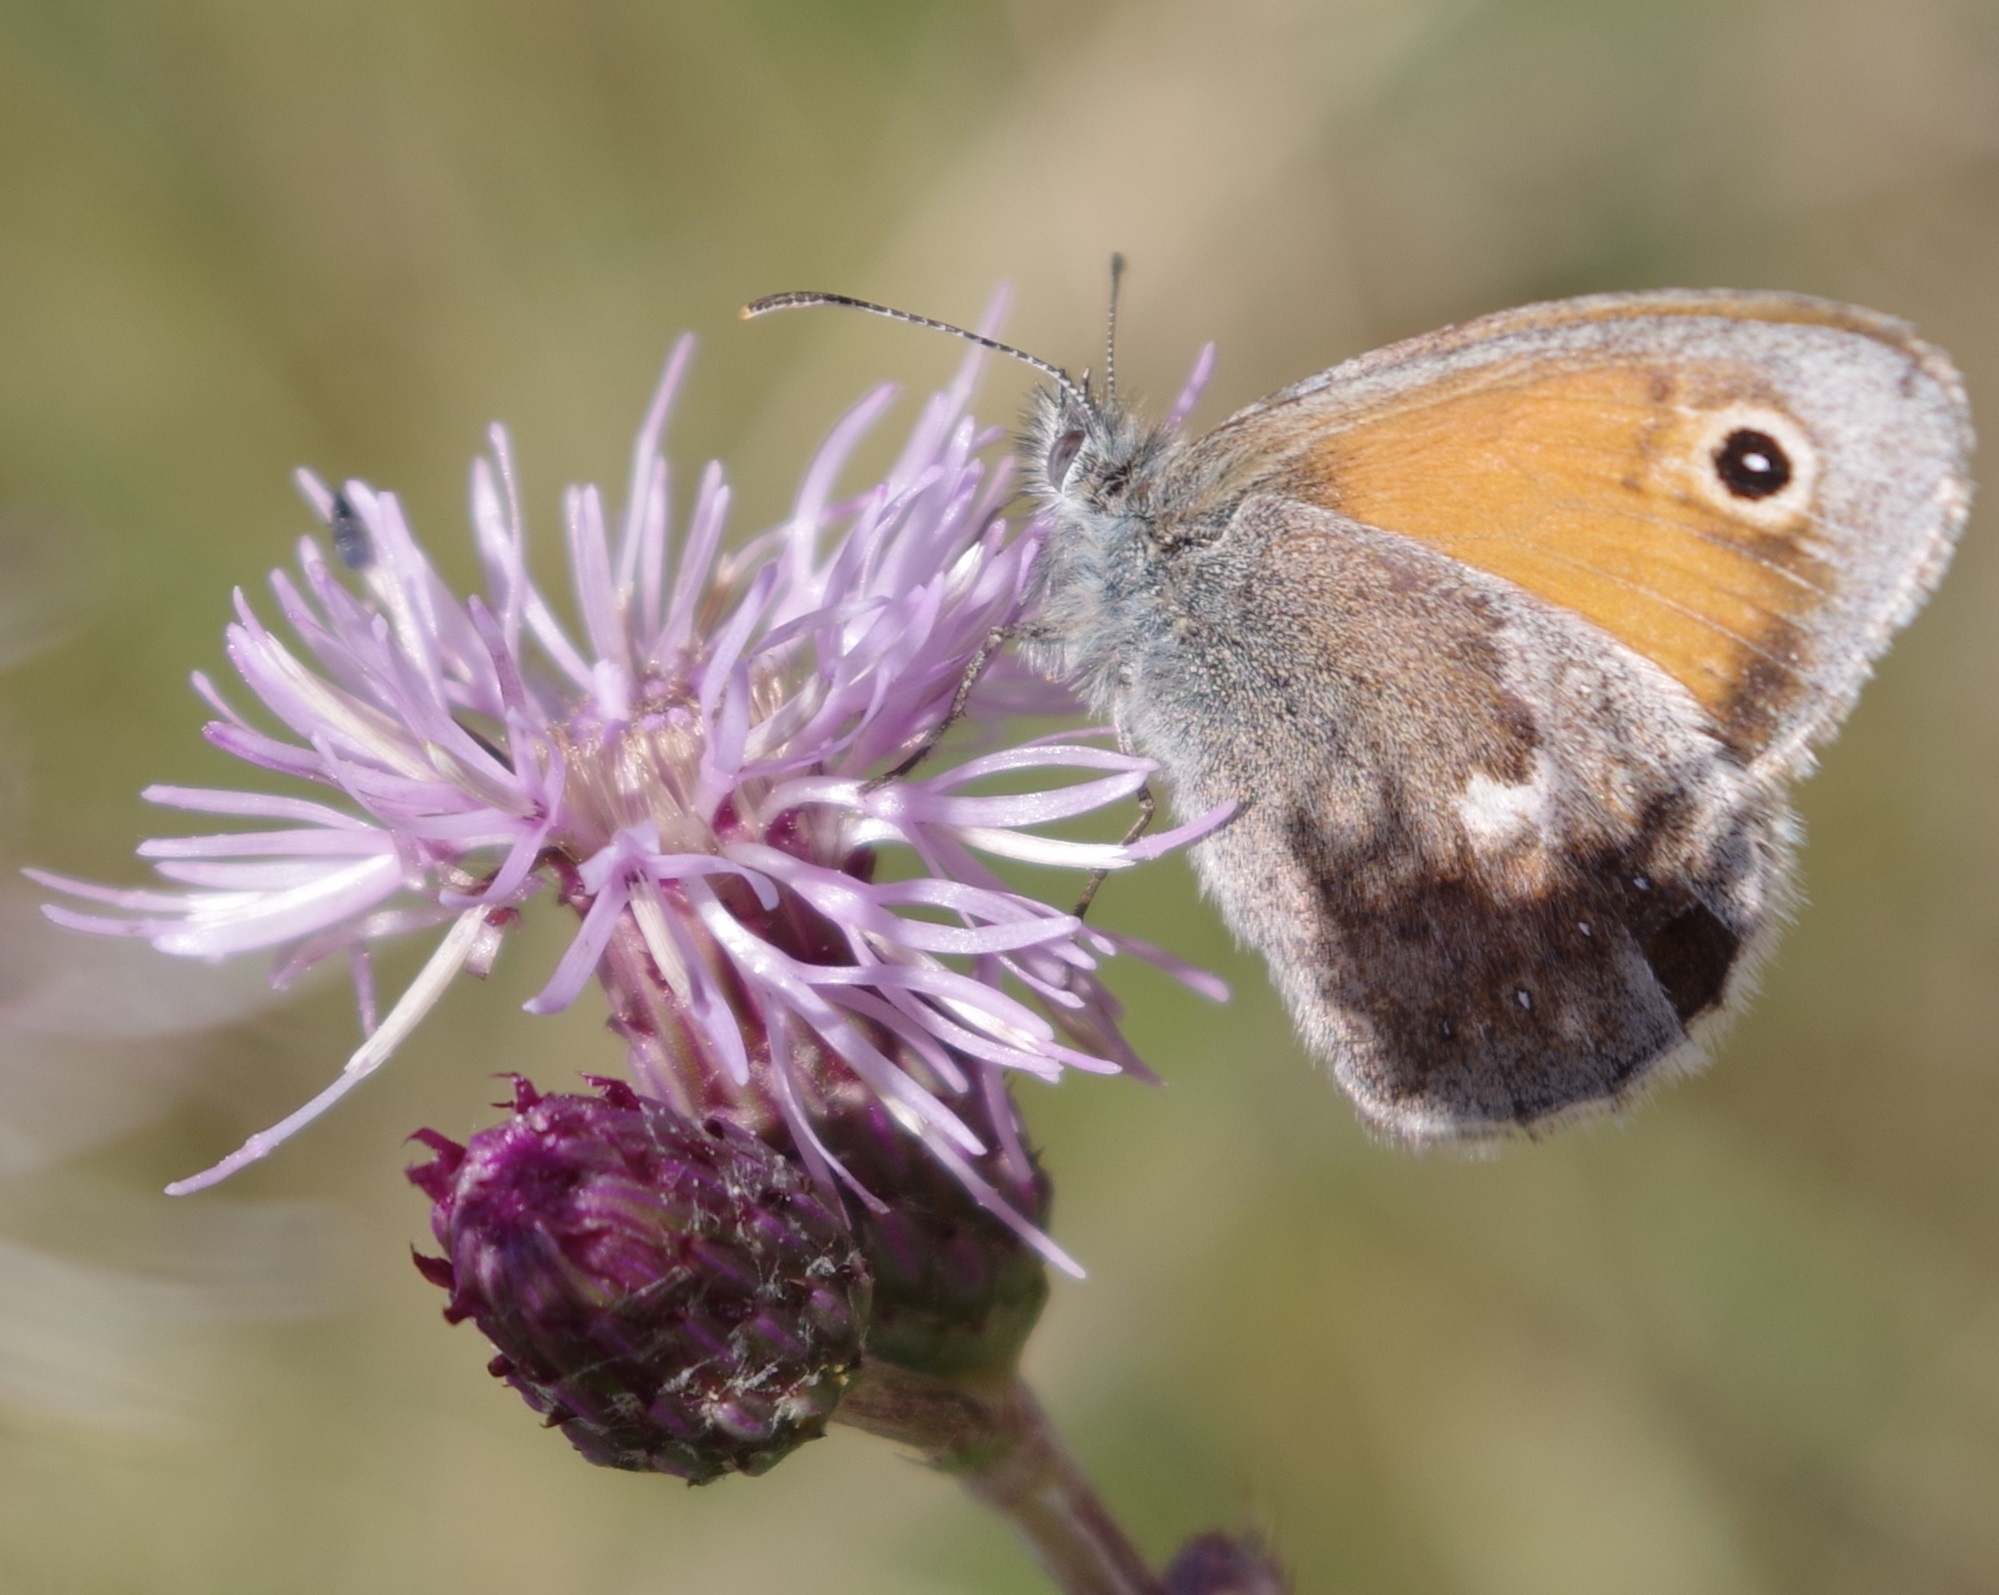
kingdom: Animalia
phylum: Arthropoda
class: Insecta
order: Lepidoptera
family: Nymphalidae
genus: Coenonympha
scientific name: Coenonympha pamphilus
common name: Small heath
